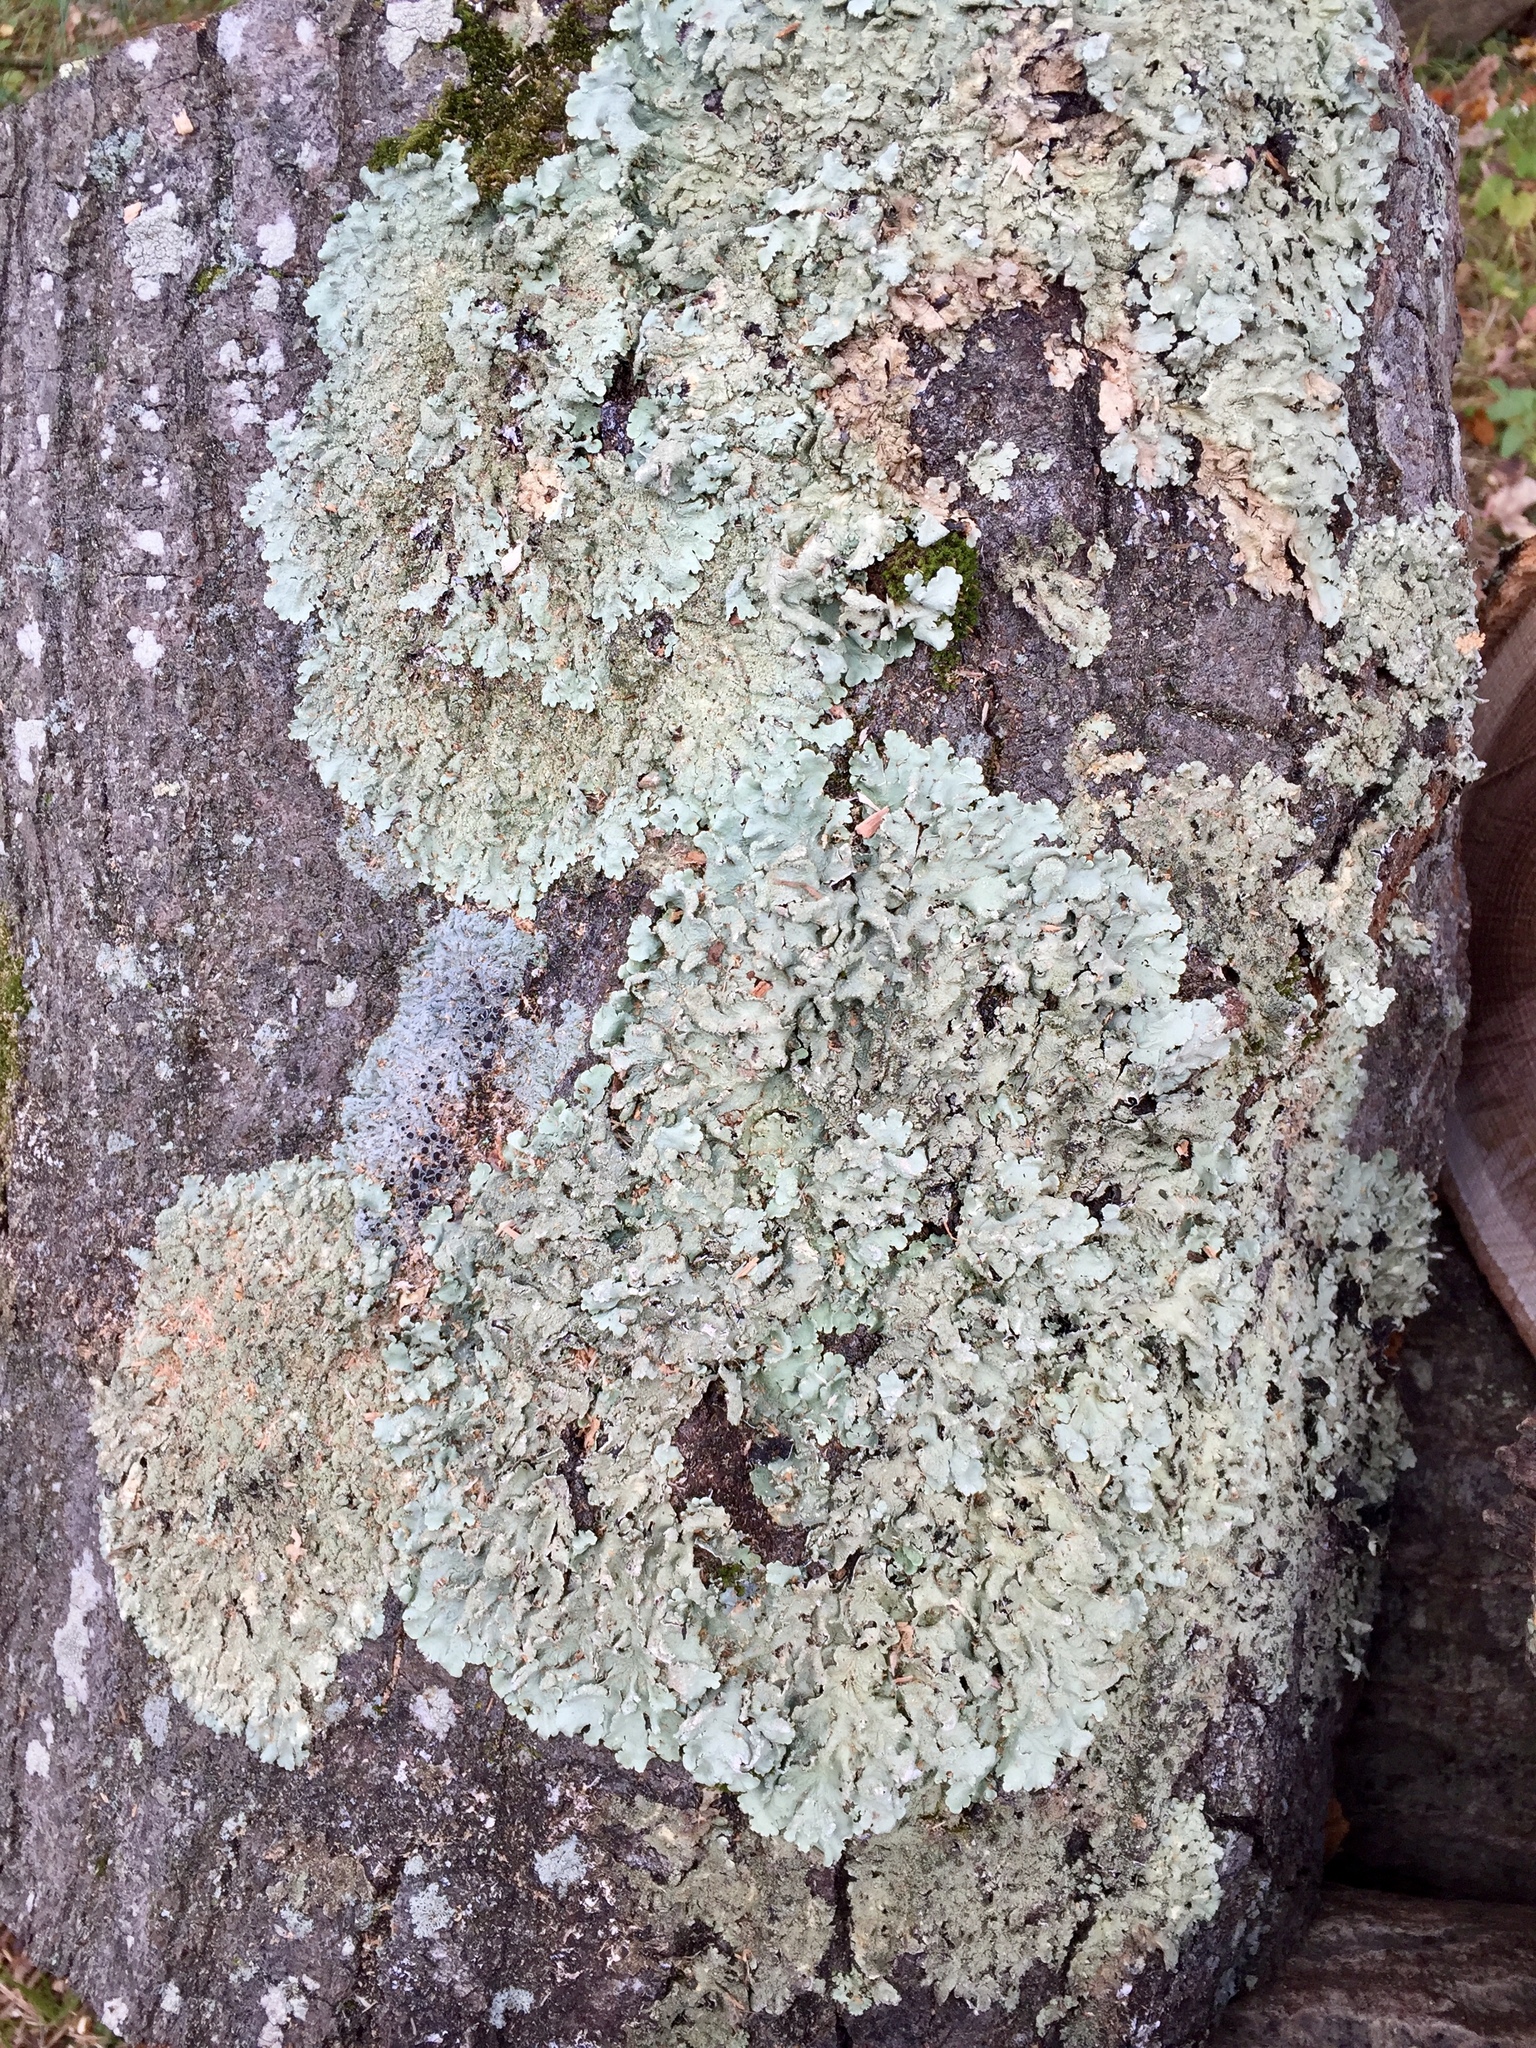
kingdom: Fungi
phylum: Ascomycota
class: Lecanoromycetes
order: Lecanorales
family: Parmeliaceae
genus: Flavoparmelia
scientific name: Flavoparmelia caperata
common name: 40-mile per hour lichen
